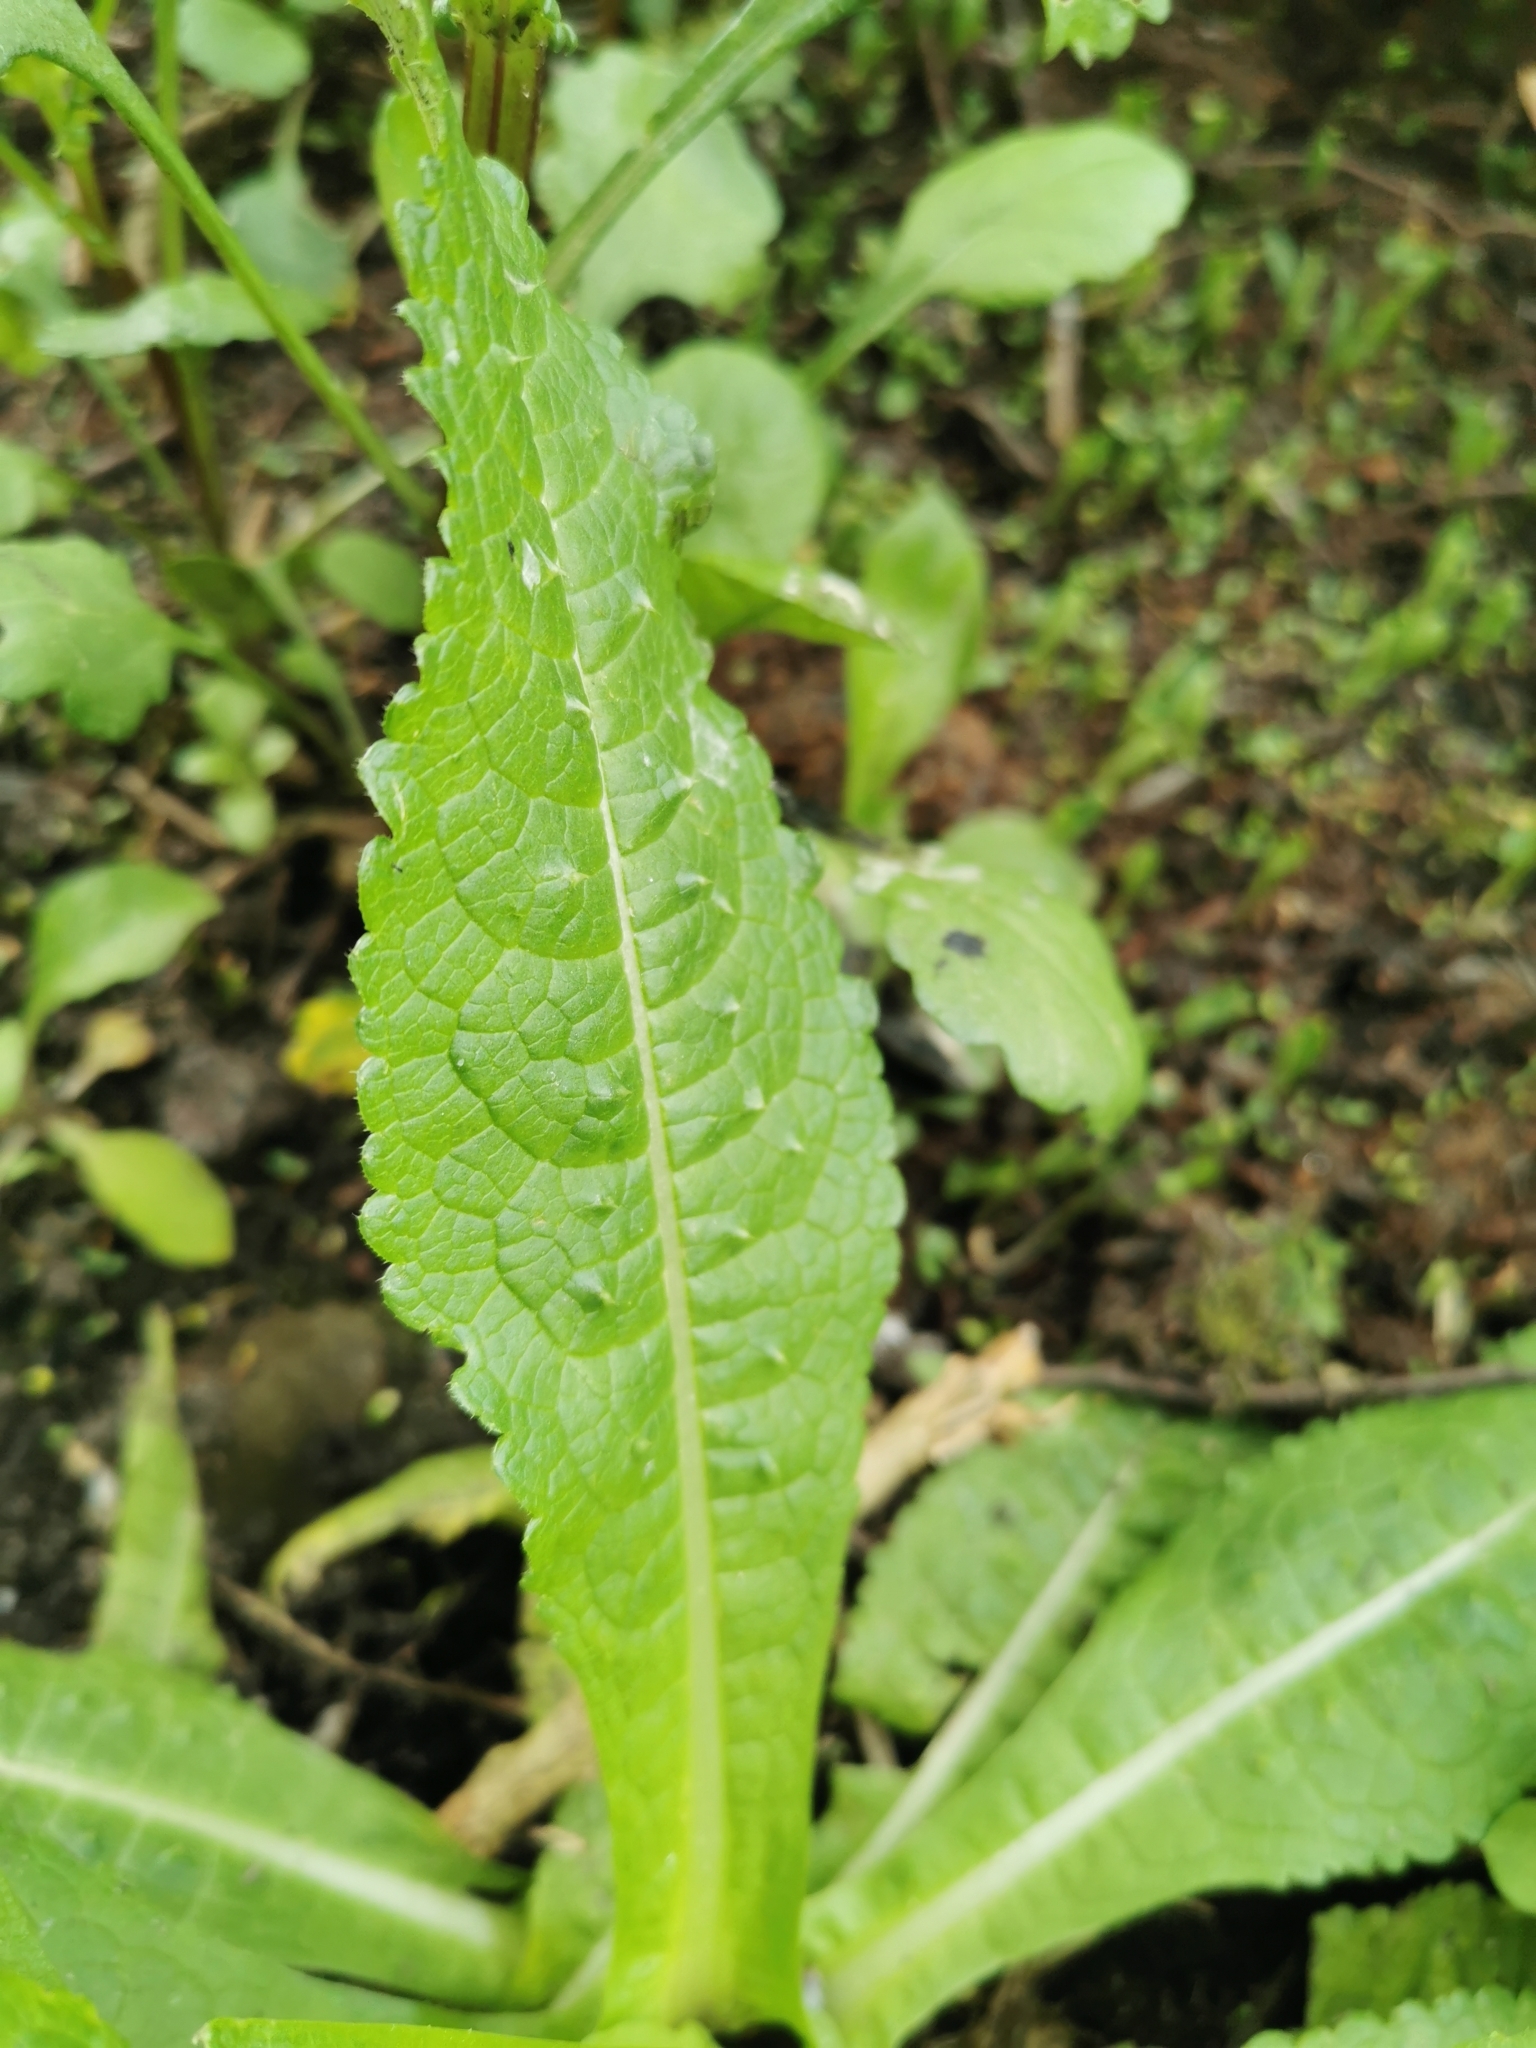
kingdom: Plantae
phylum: Tracheophyta
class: Magnoliopsida
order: Dipsacales
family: Caprifoliaceae
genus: Dipsacus
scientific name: Dipsacus fullonum
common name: Teasel
